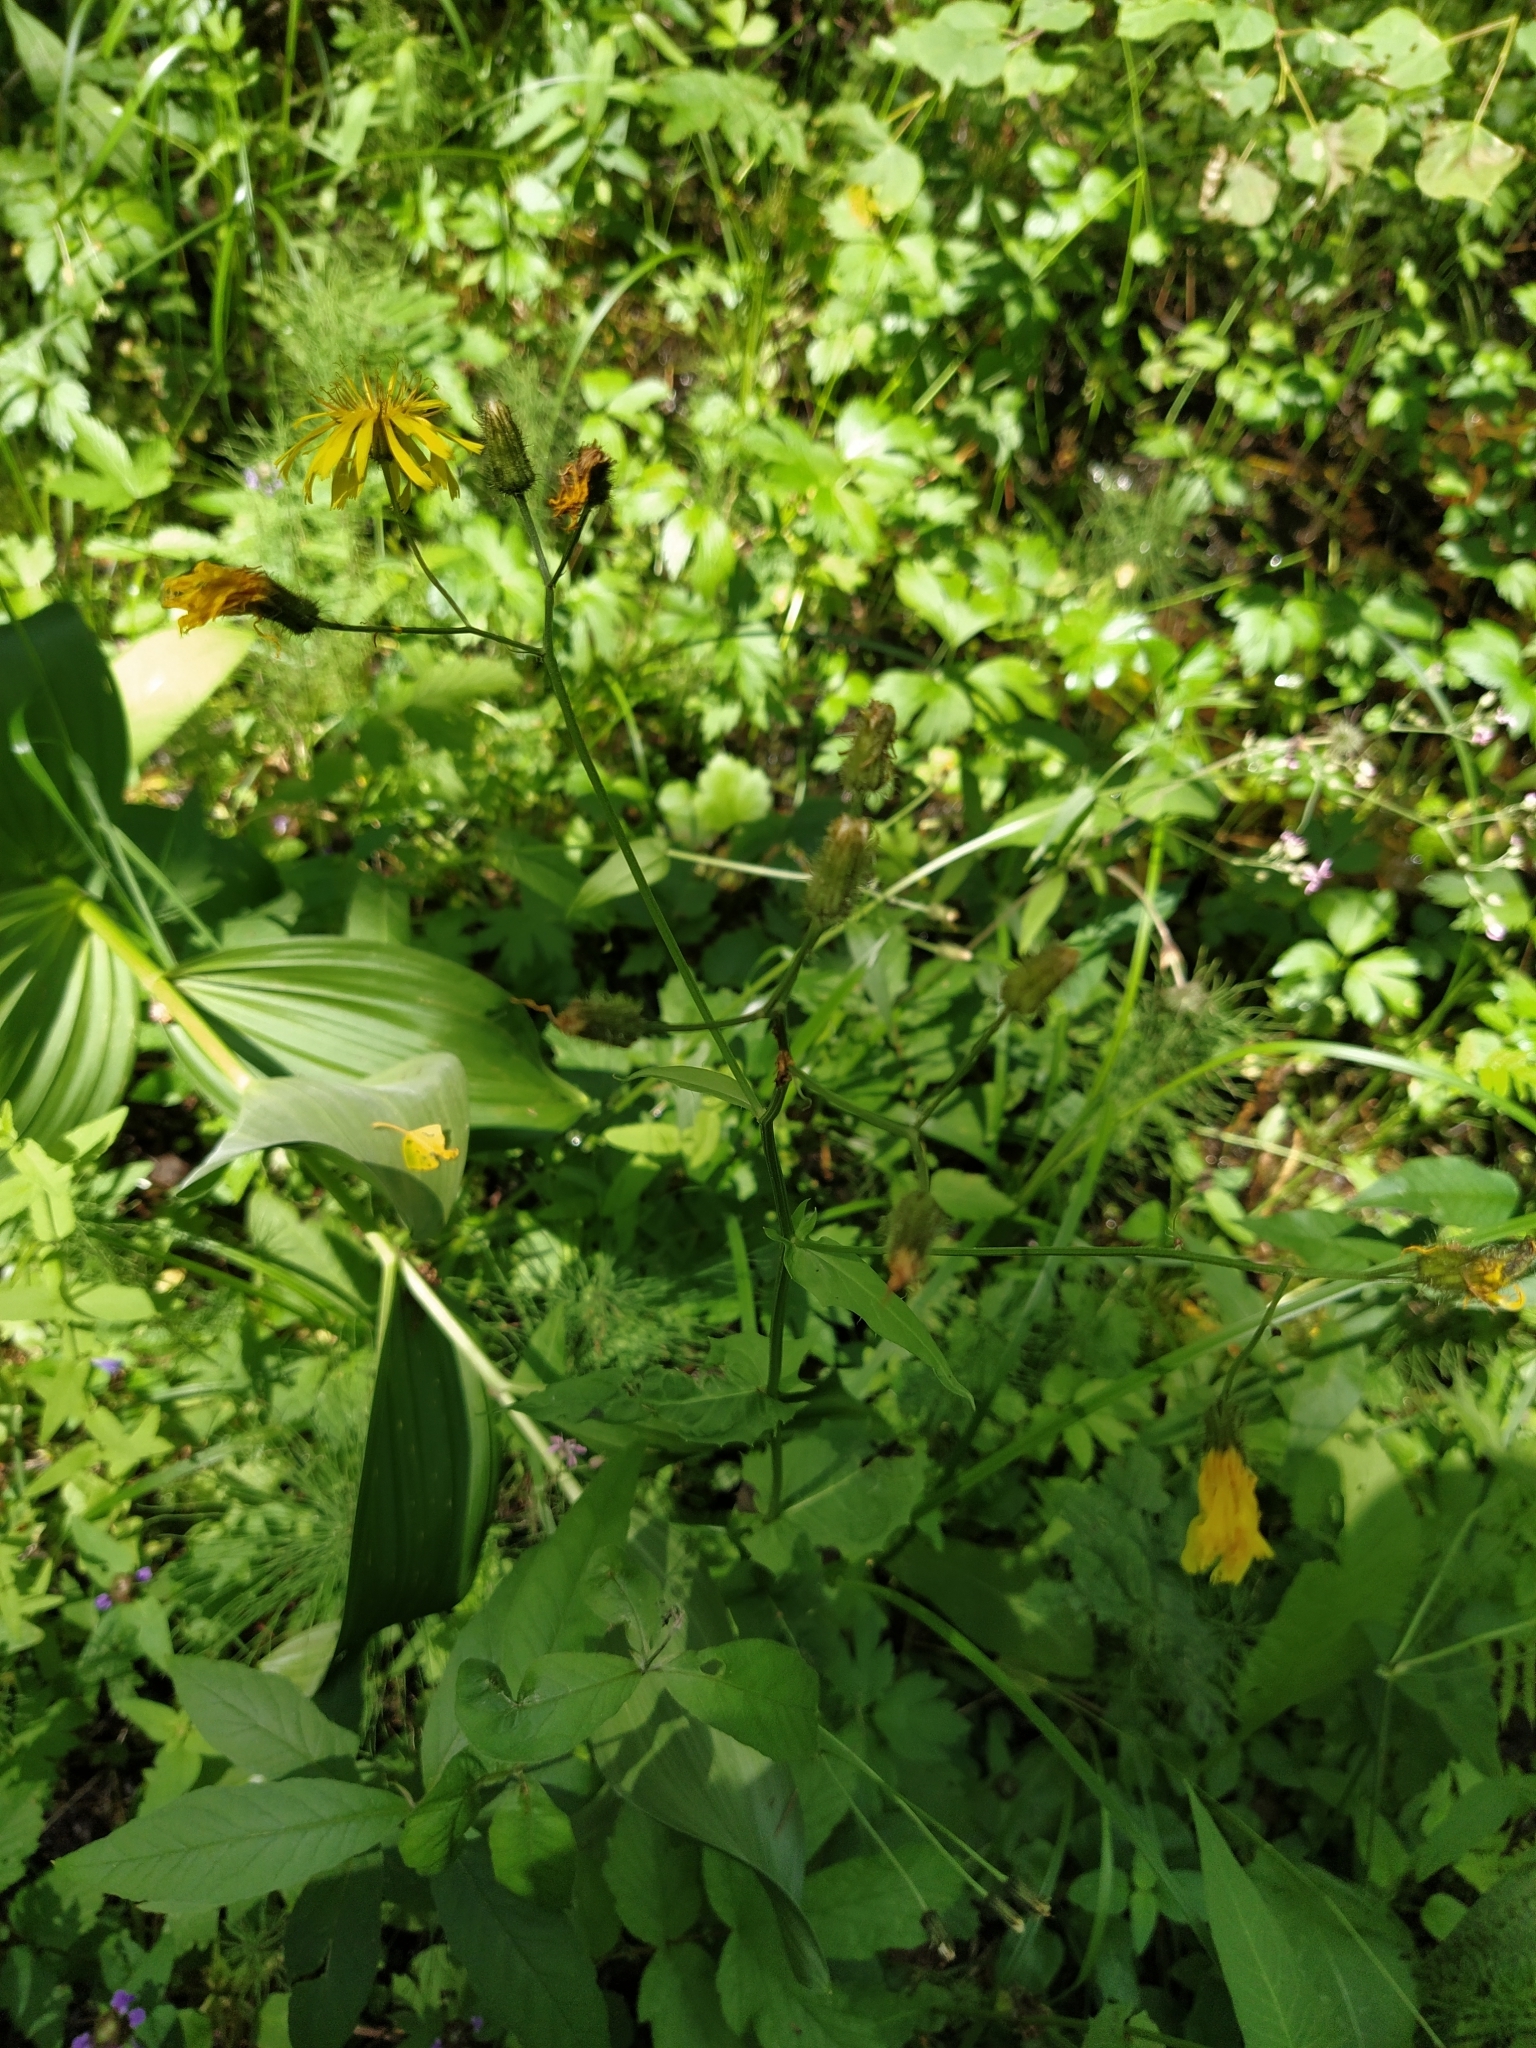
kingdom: Plantae
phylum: Tracheophyta
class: Magnoliopsida
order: Asterales
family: Asteraceae
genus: Crepis
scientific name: Crepis paludosa
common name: Marsh hawk's-beard
